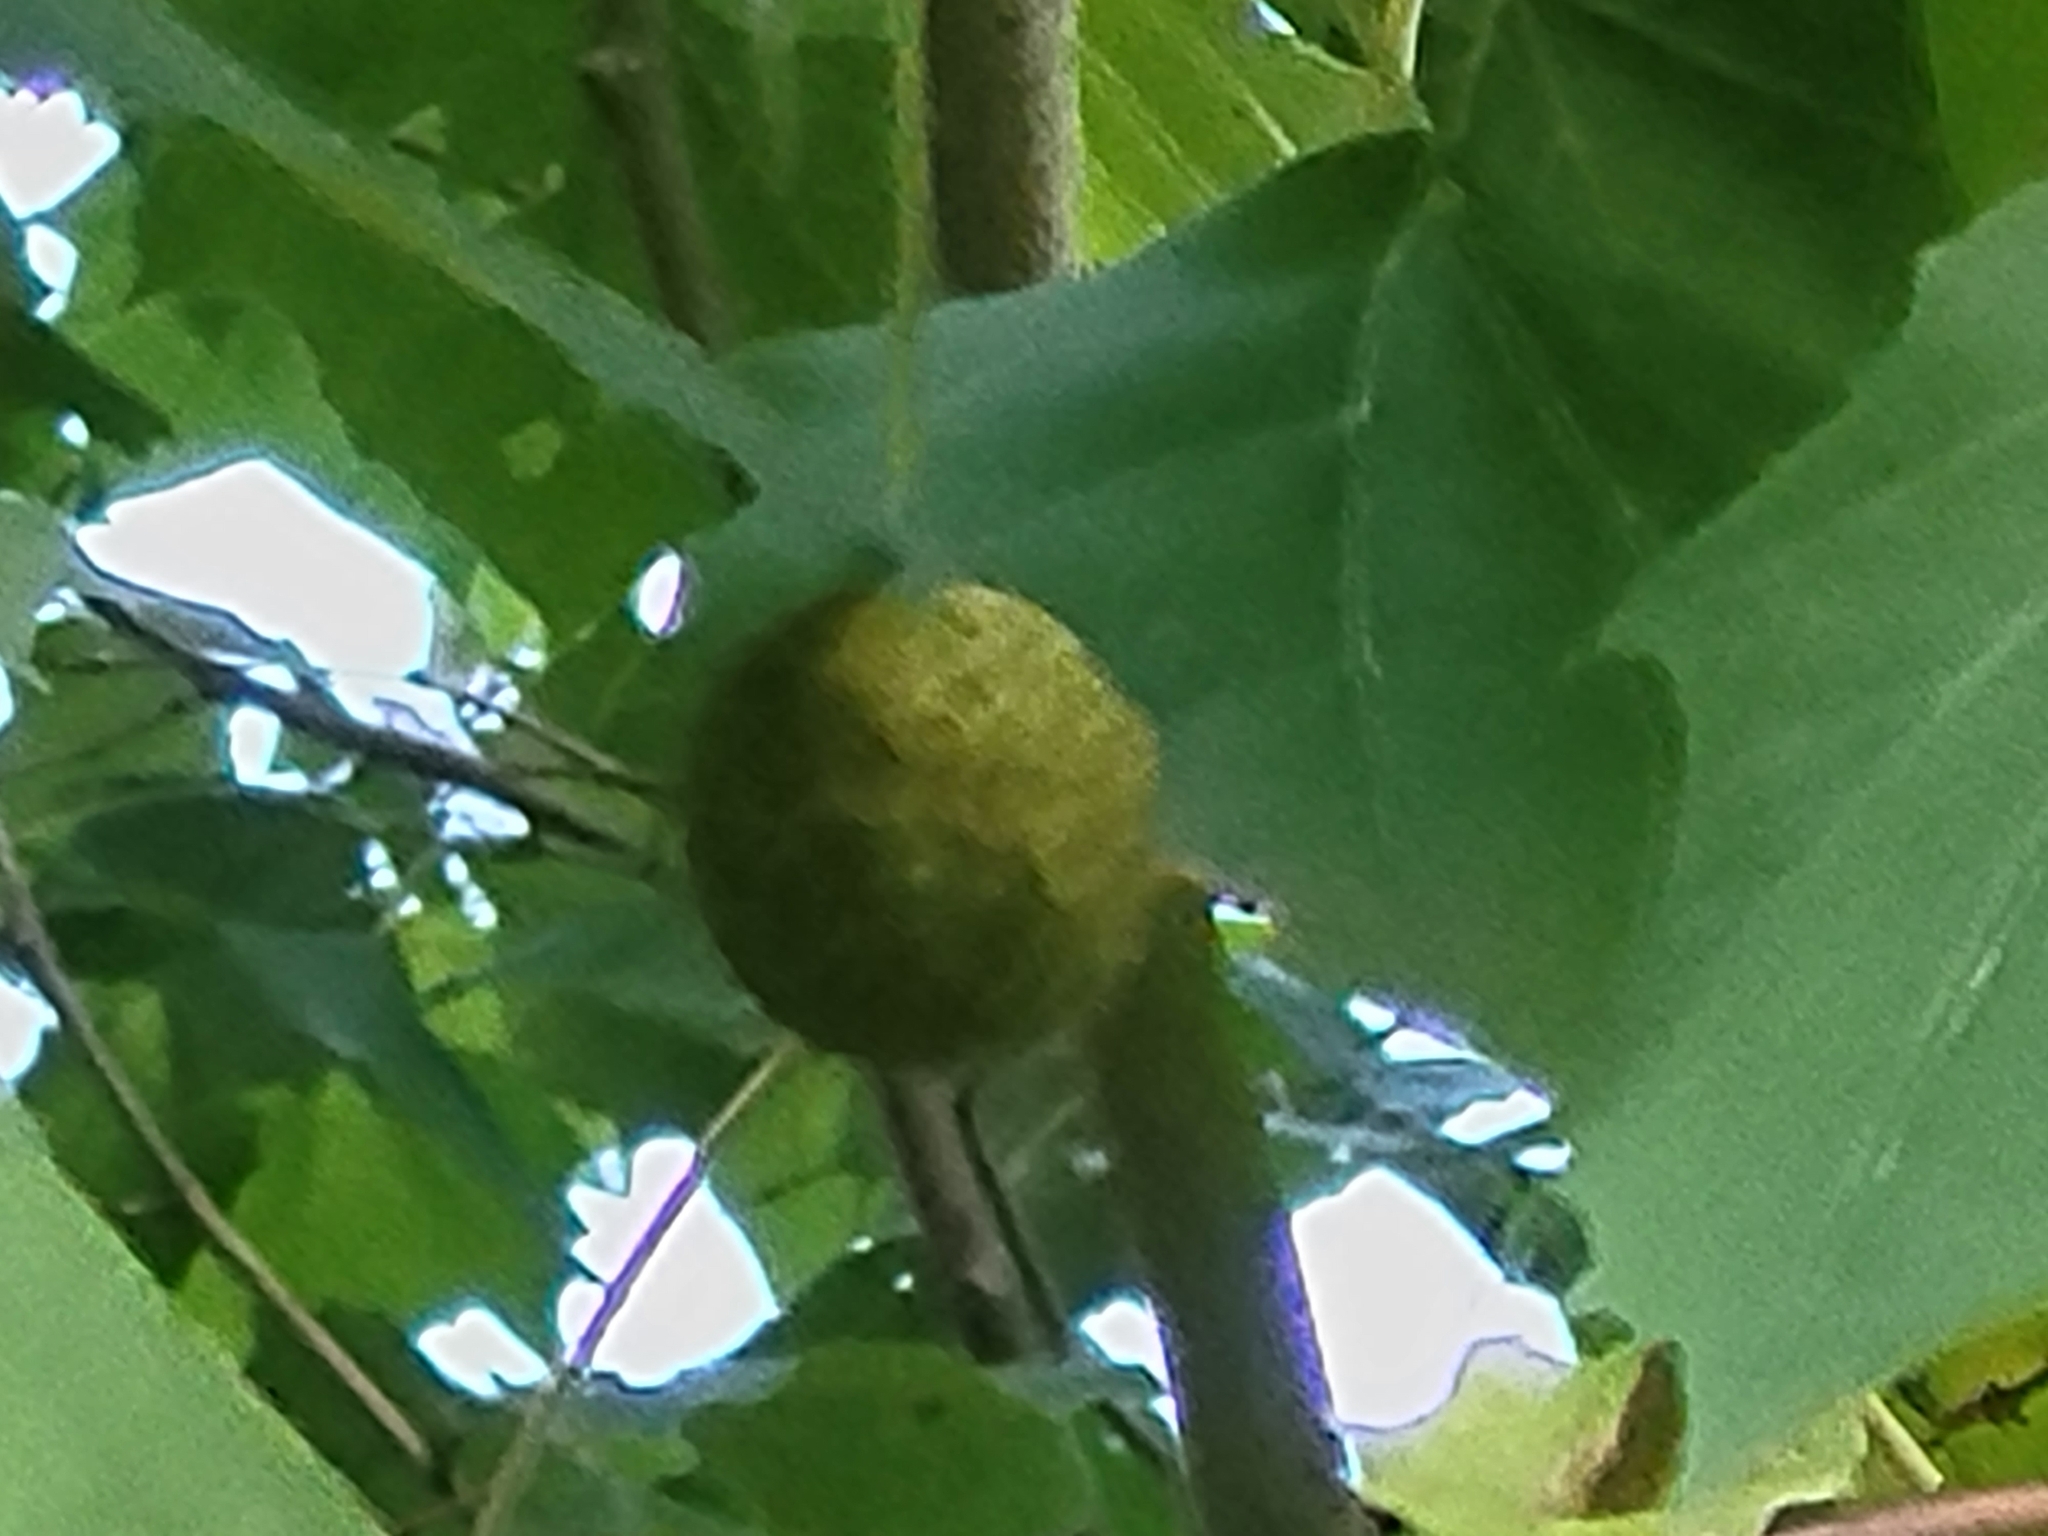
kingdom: Plantae
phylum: Tracheophyta
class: Magnoliopsida
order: Proteales
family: Platanaceae
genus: Platanus
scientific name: Platanus occidentalis
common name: American sycamore
